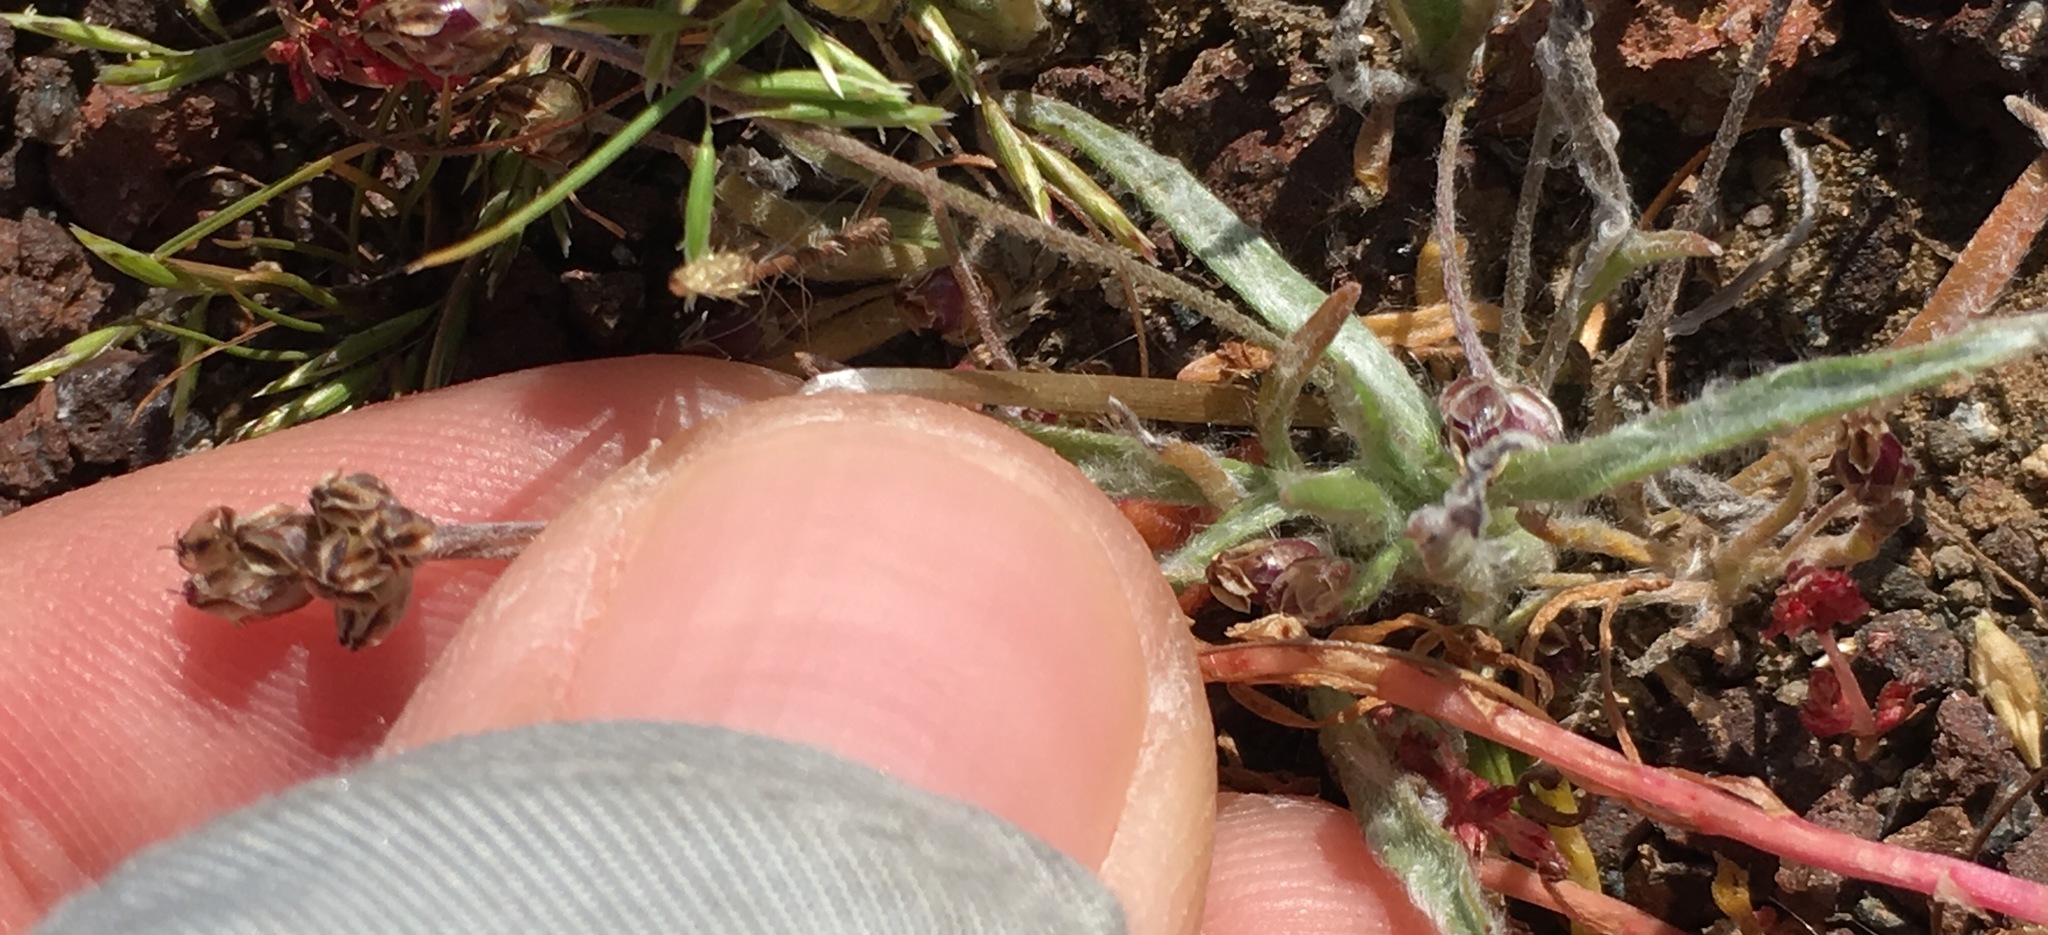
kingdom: Plantae
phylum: Tracheophyta
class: Magnoliopsida
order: Lamiales
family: Plantaginaceae
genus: Plantago
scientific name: Plantago ovata
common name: Blond plantain
